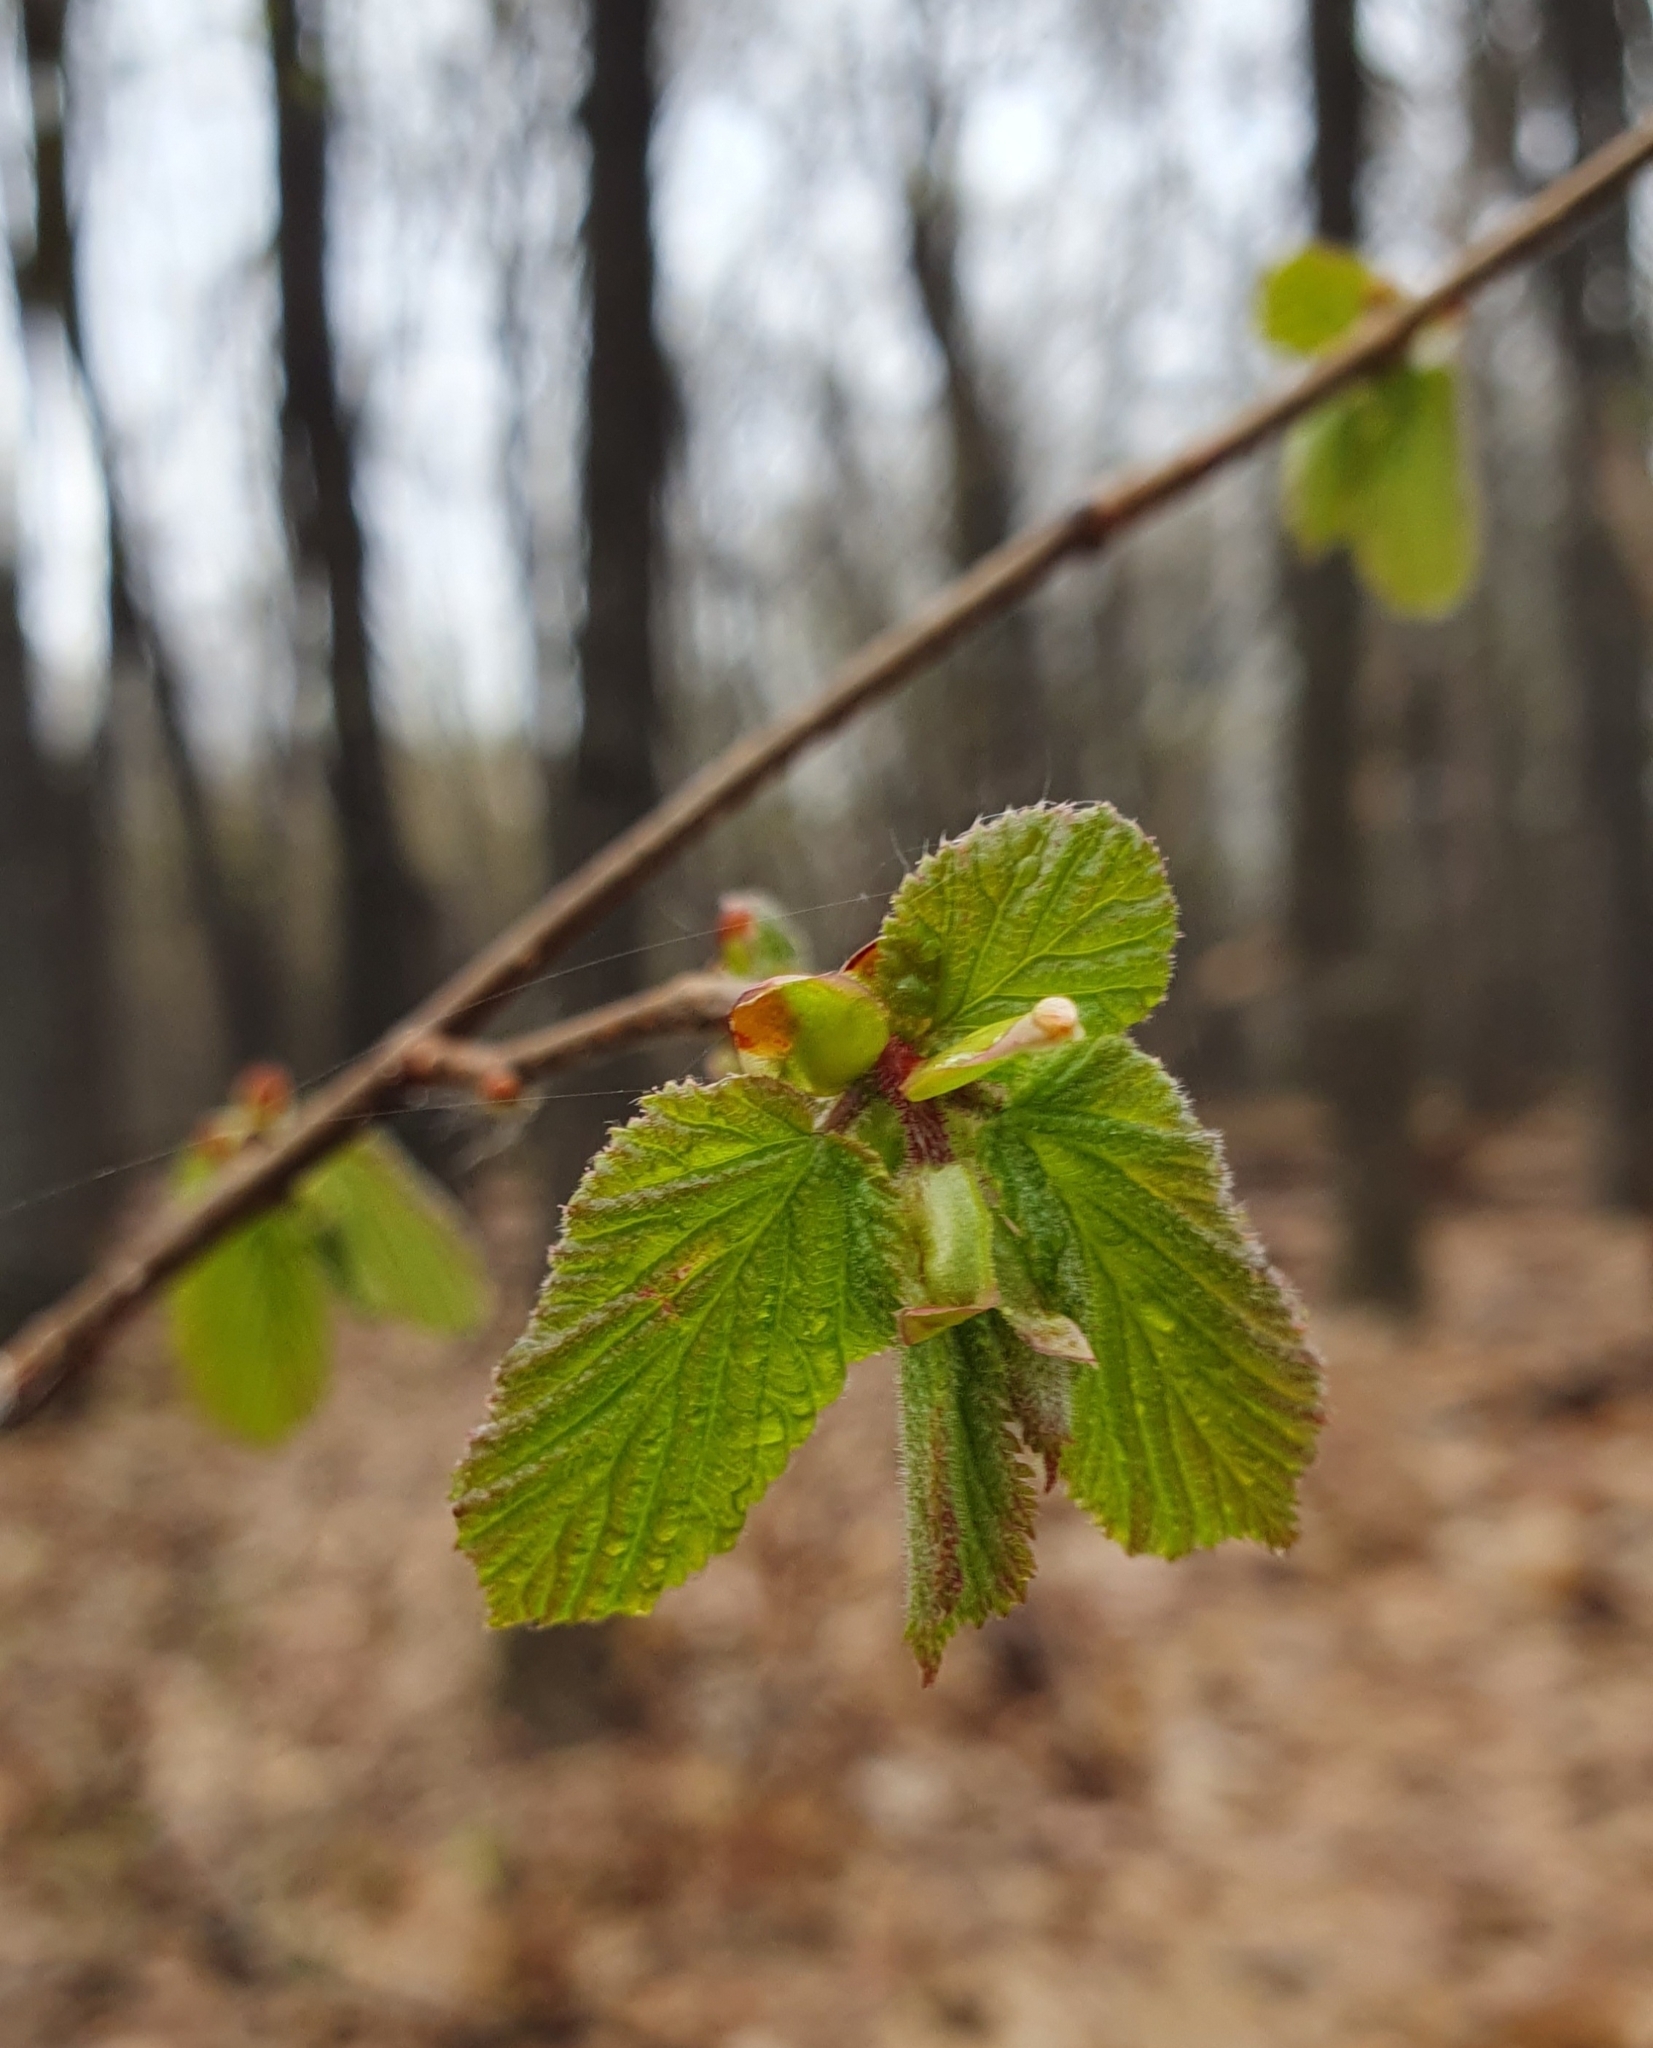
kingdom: Plantae
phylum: Tracheophyta
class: Magnoliopsida
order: Fagales
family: Betulaceae
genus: Corylus
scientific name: Corylus avellana
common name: European hazel
